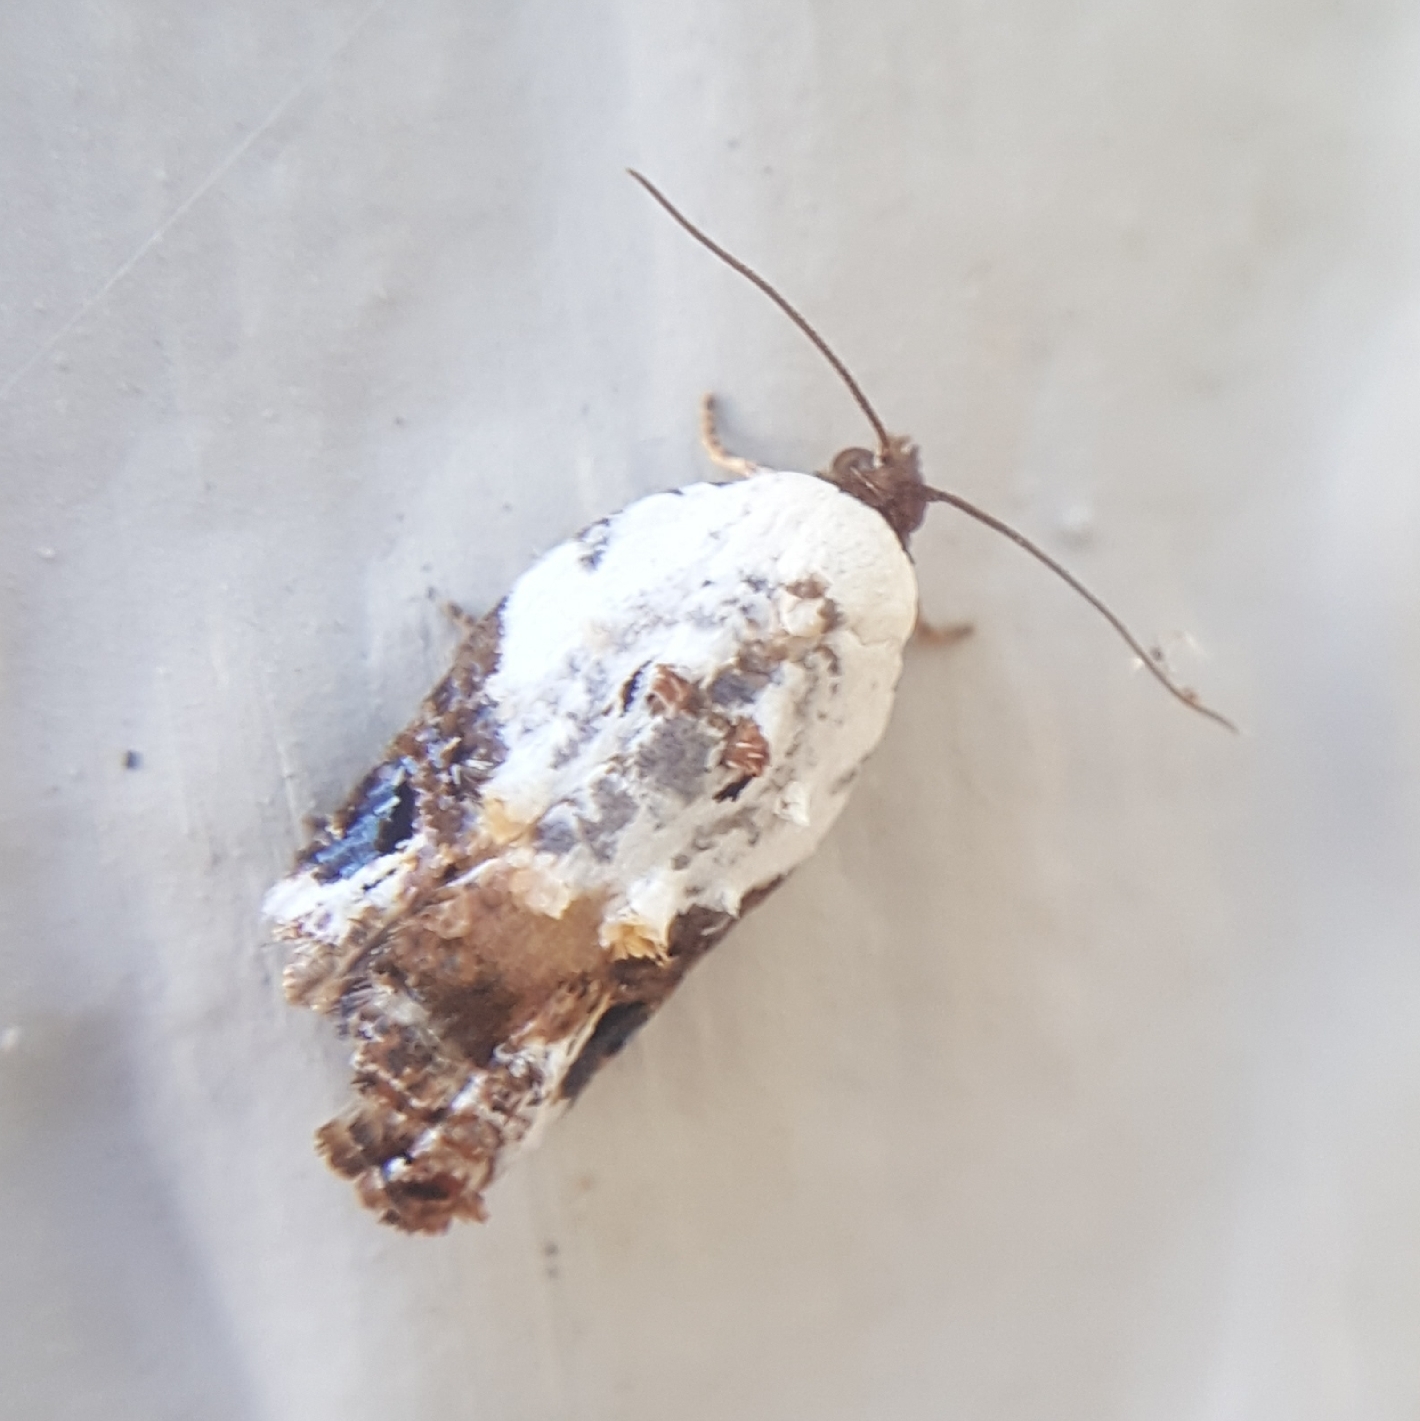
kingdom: Animalia
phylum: Arthropoda
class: Insecta
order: Lepidoptera
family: Tortricidae
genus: Acleris
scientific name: Acleris nivisellana
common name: Snowy-shouldered acleris moth
